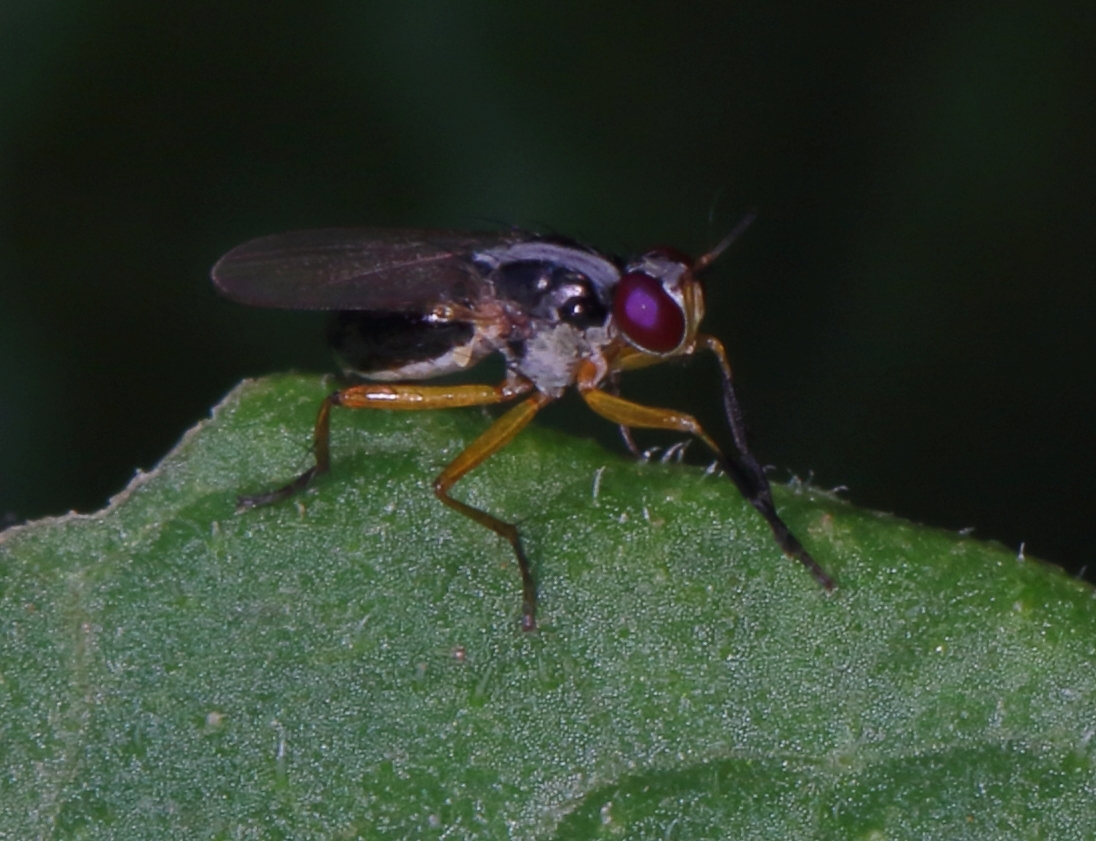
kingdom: Animalia
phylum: Arthropoda
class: Insecta
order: Diptera
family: Muscidae
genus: Anaphalantus
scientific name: Anaphalantus longicornis
